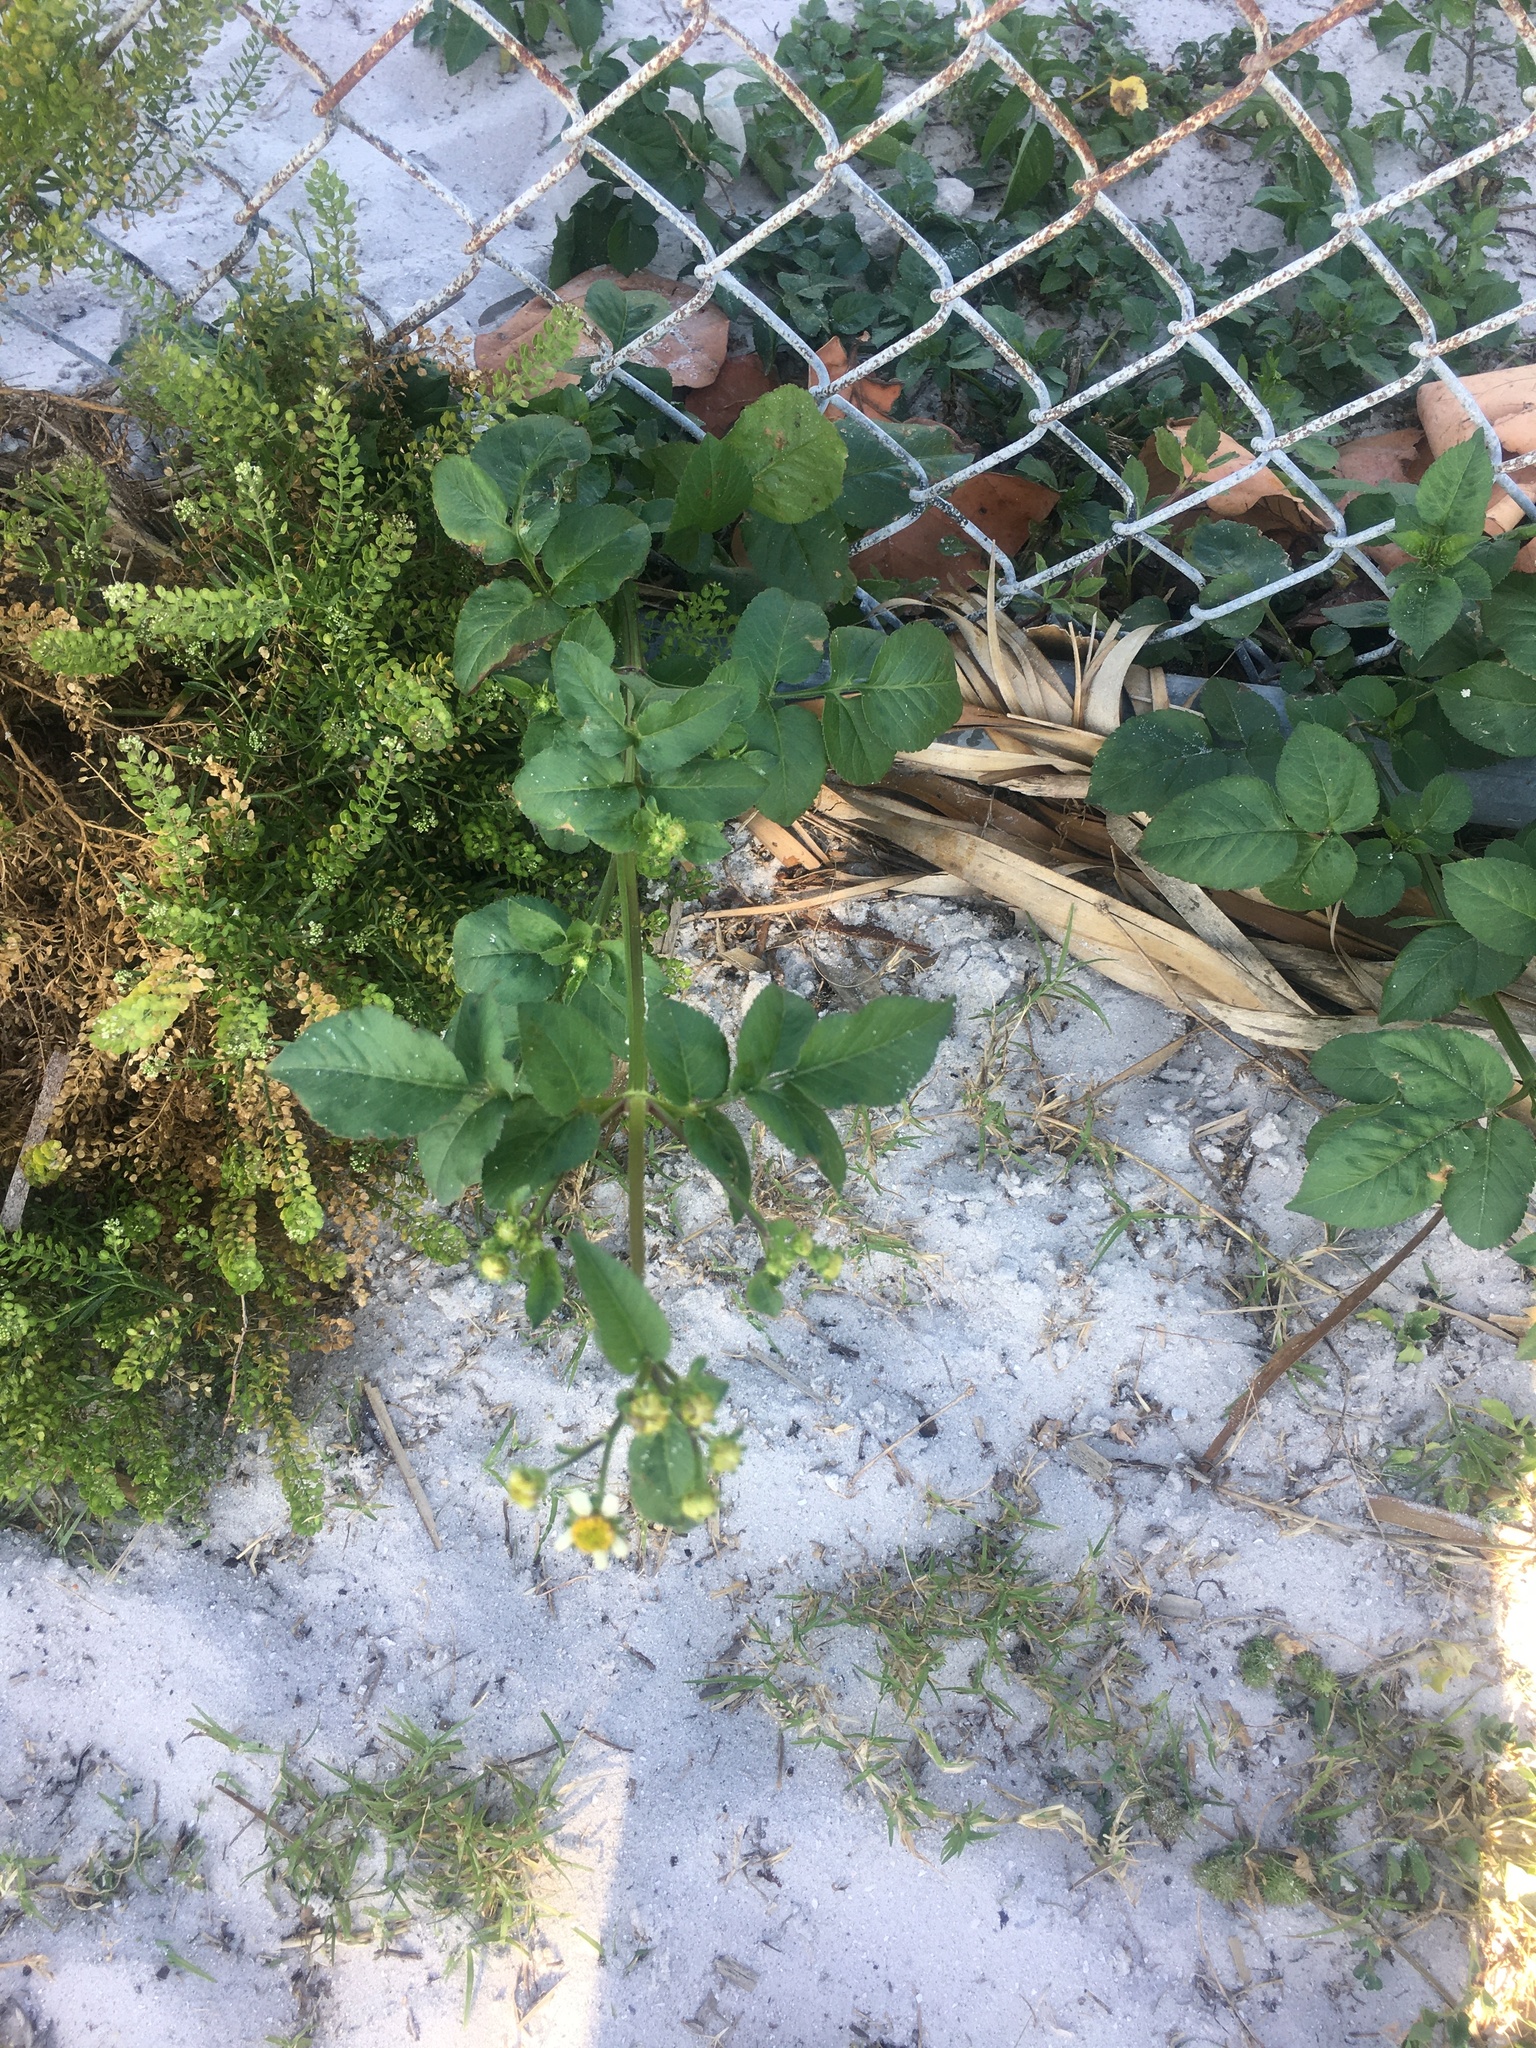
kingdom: Plantae
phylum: Tracheophyta
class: Magnoliopsida
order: Asterales
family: Asteraceae
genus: Bidens
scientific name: Bidens alba
